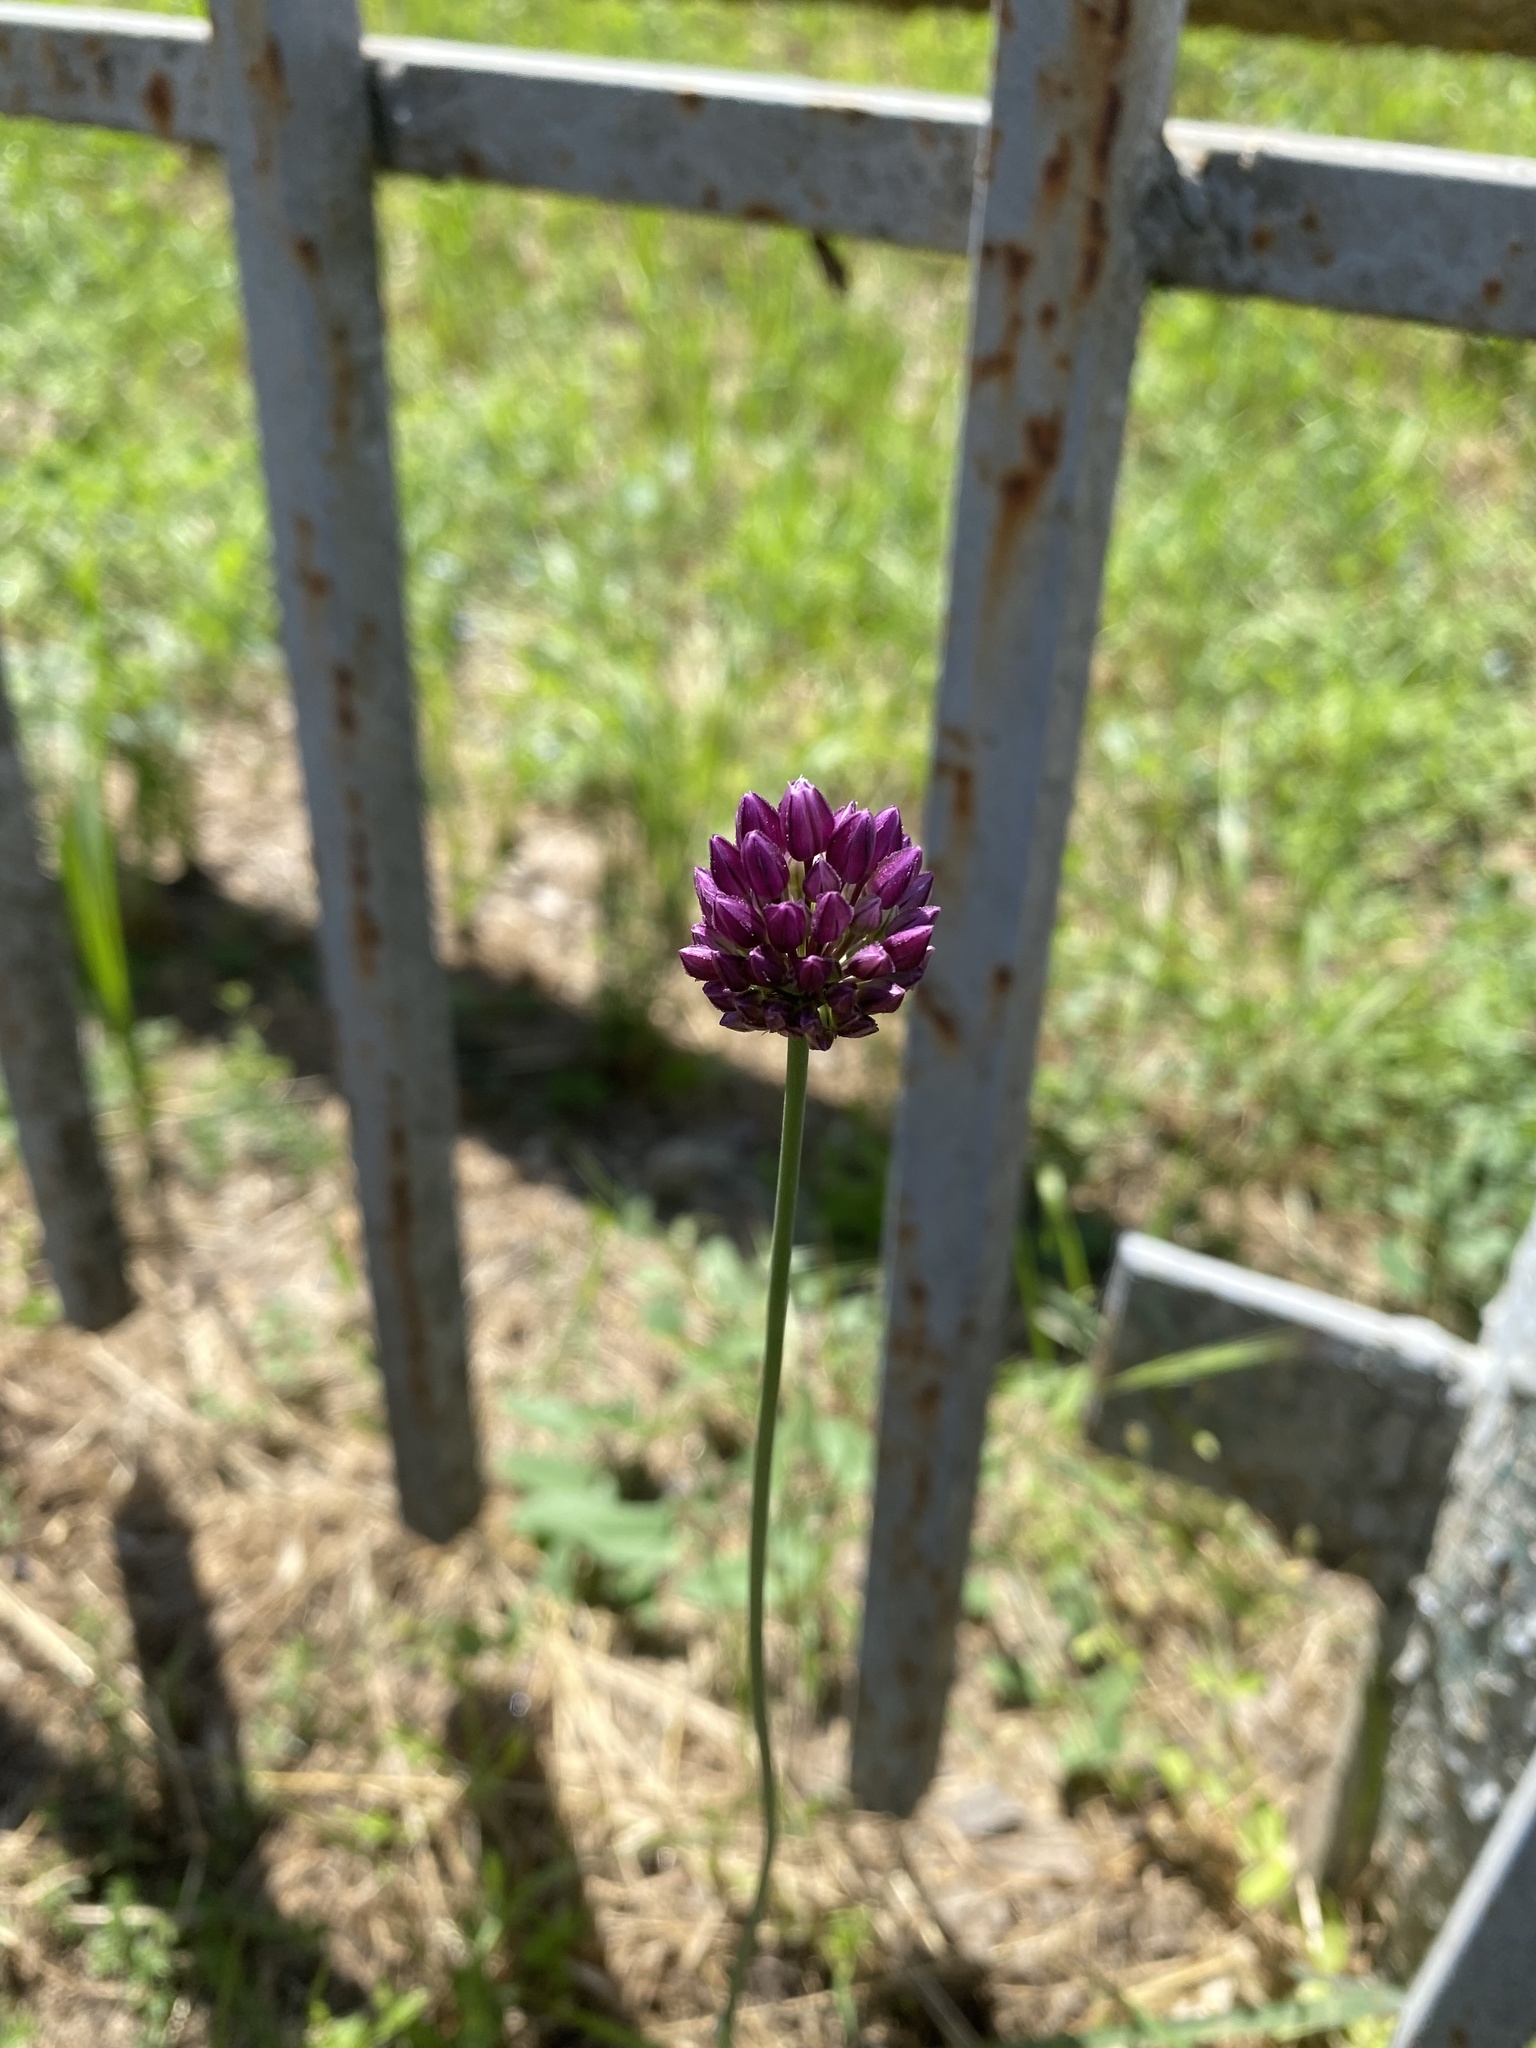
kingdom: Plantae
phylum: Tracheophyta
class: Liliopsida
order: Asparagales
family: Amaryllidaceae
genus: Allium
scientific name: Allium rotundum
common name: Sand leek
